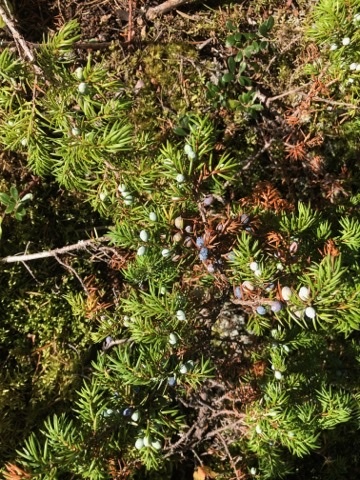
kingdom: Plantae
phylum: Tracheophyta
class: Pinopsida
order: Pinales
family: Cupressaceae
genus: Juniperus
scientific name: Juniperus communis
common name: Common juniper
